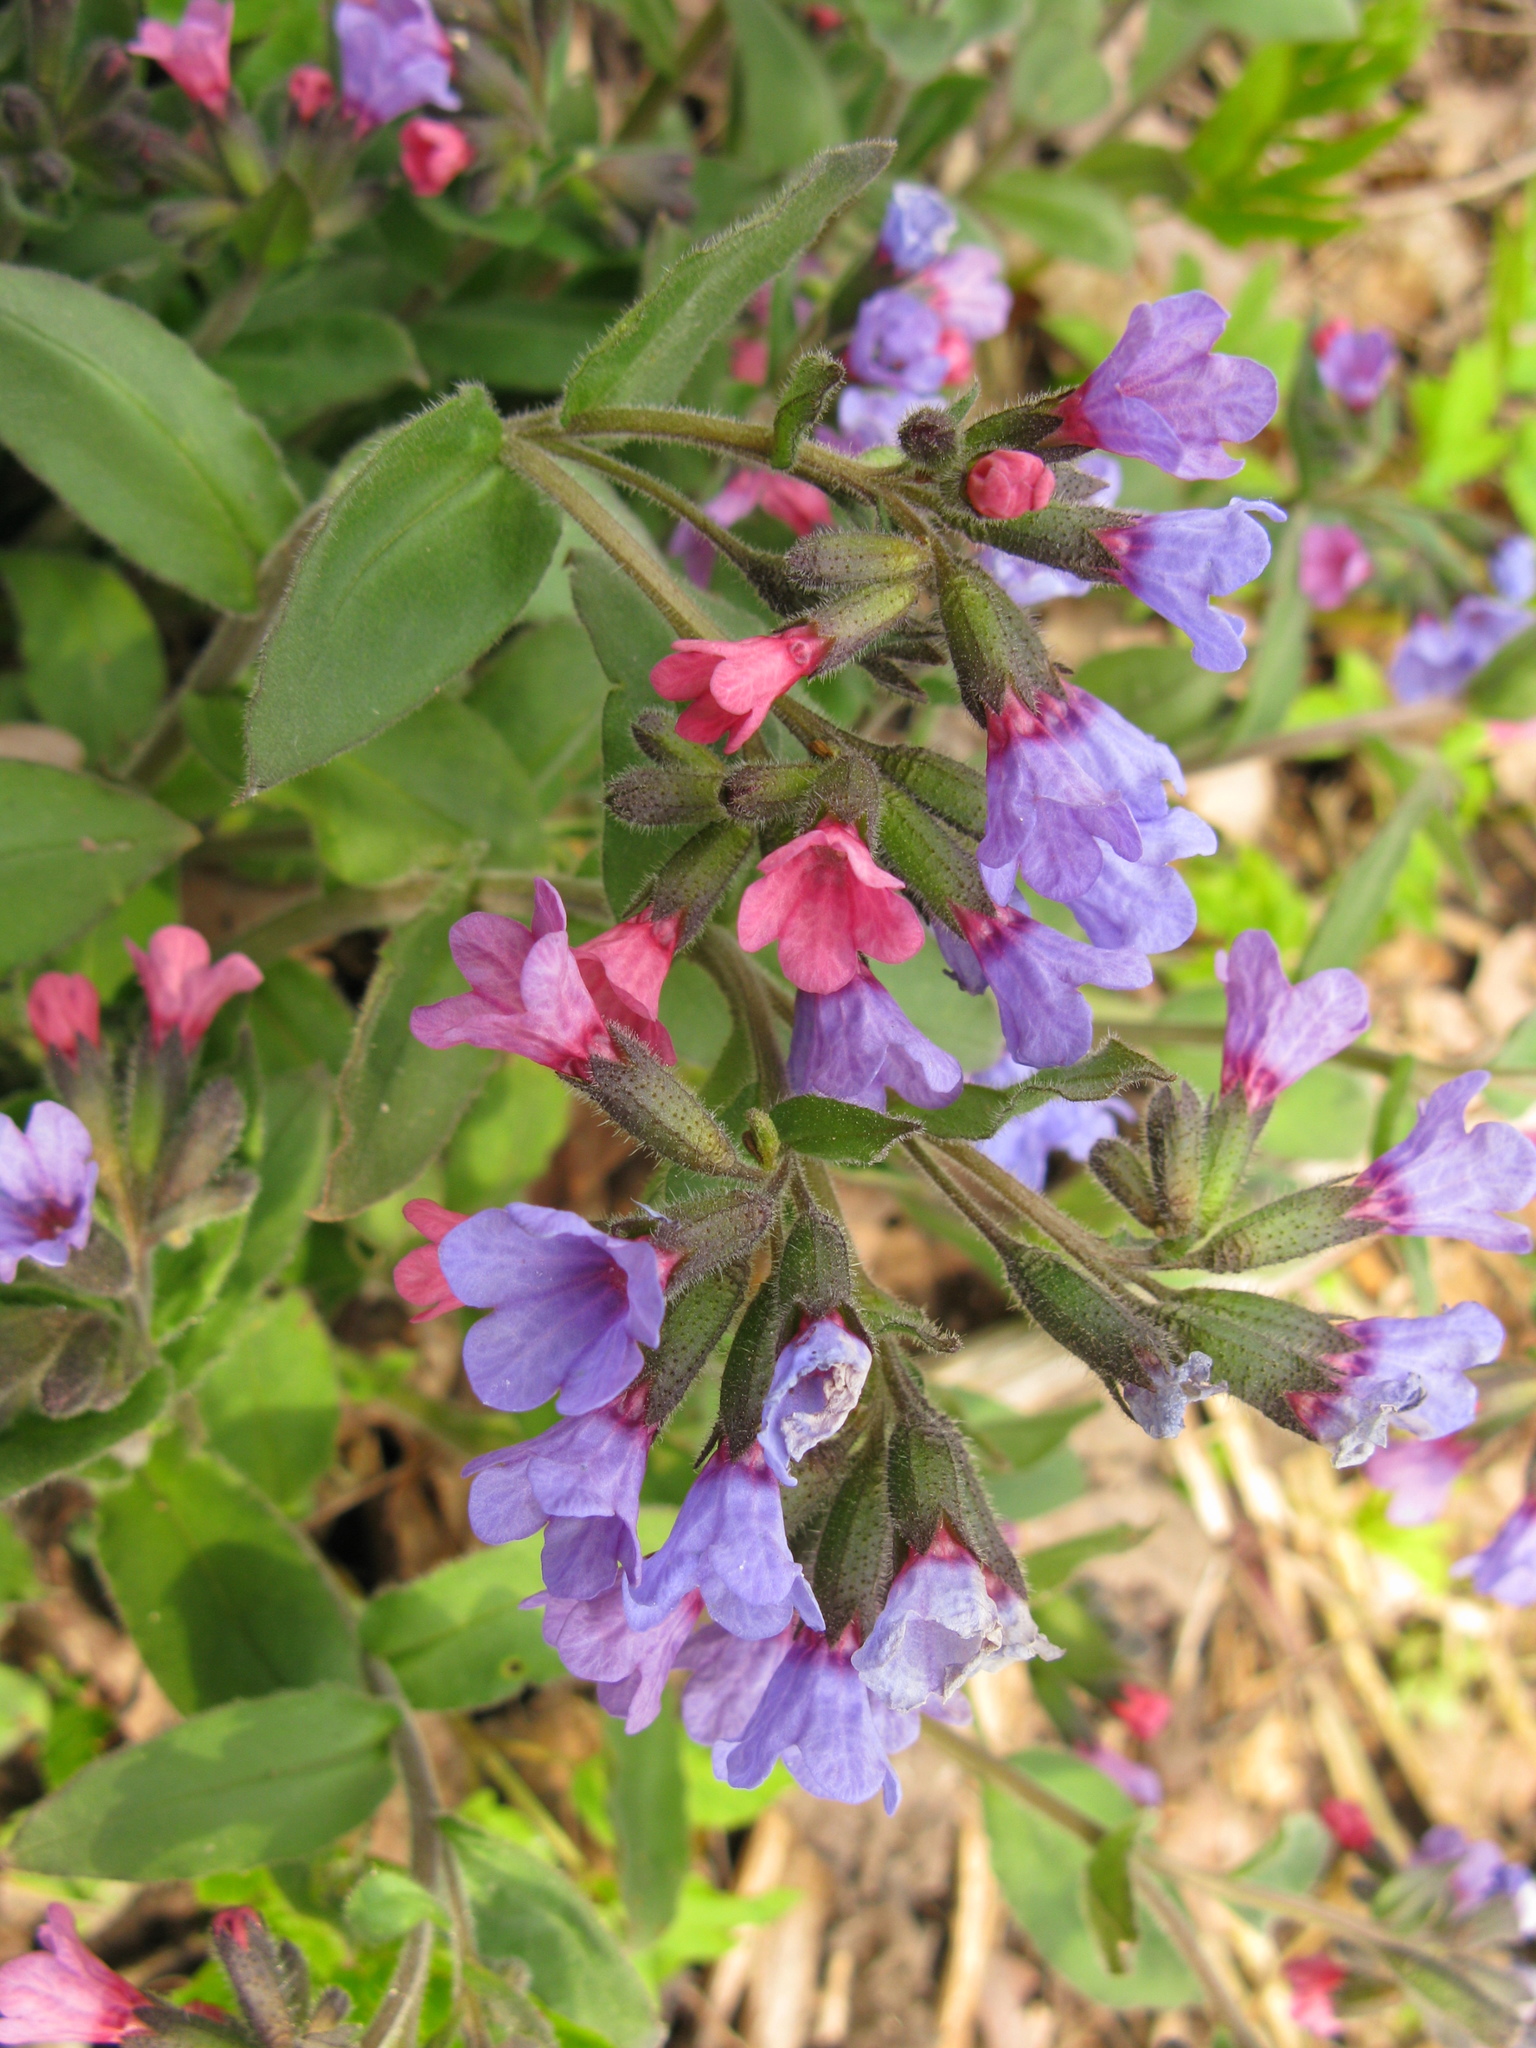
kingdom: Plantae
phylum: Tracheophyta
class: Magnoliopsida
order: Boraginales
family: Boraginaceae
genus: Pulmonaria
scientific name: Pulmonaria obscura
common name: Suffolk lungwort
